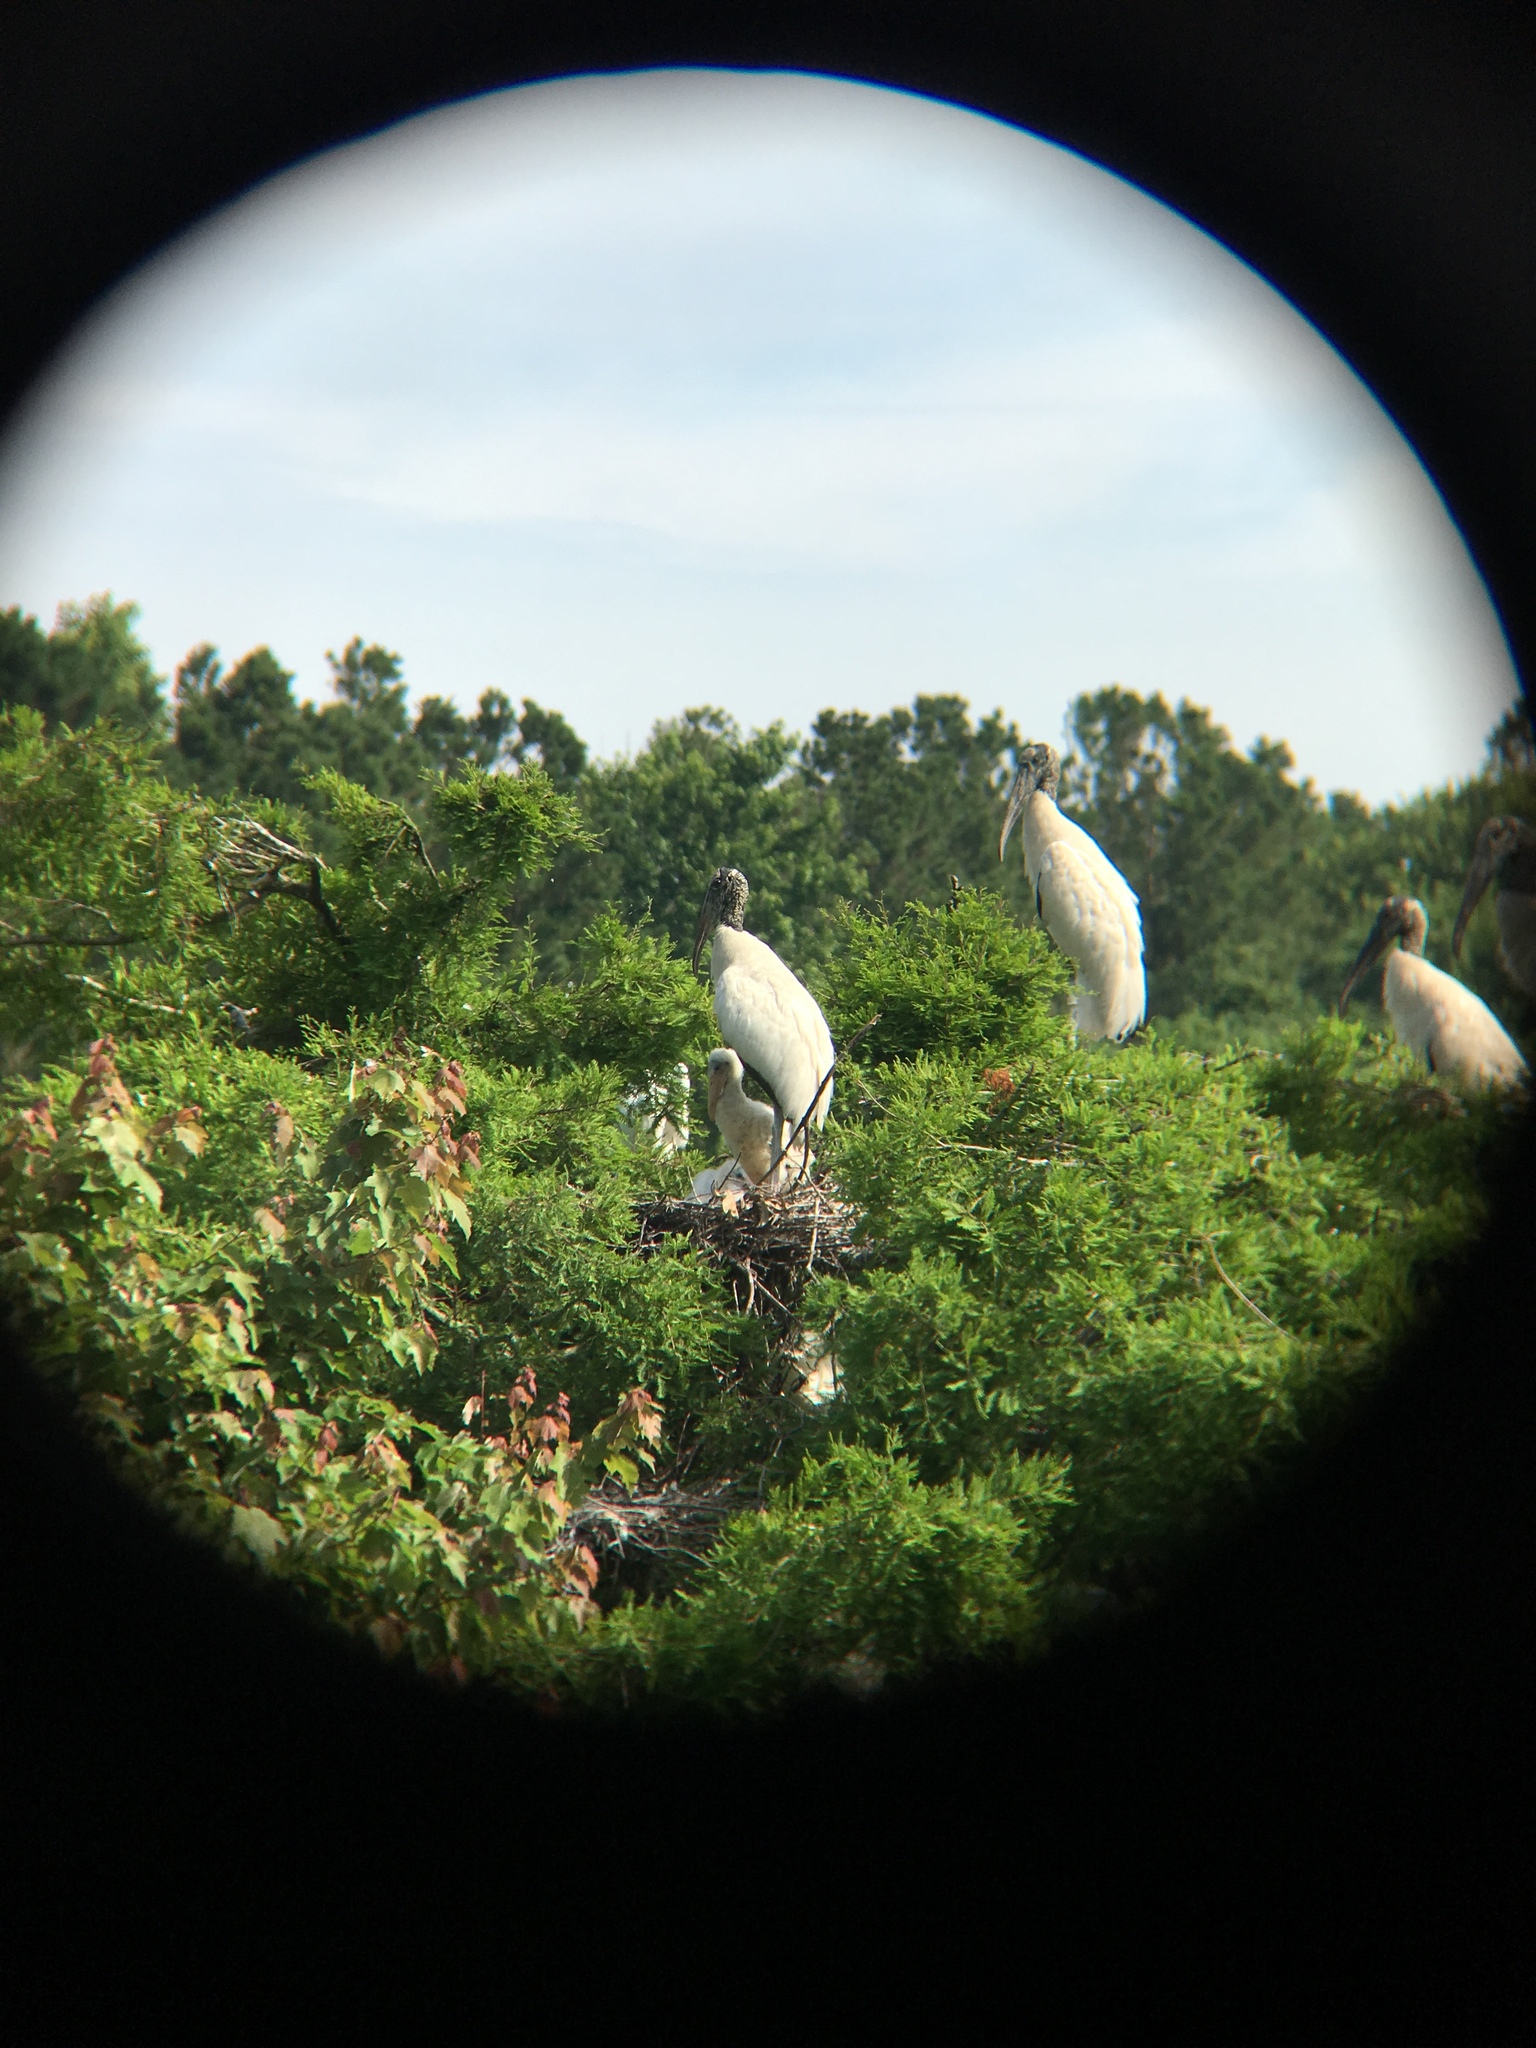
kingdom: Animalia
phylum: Chordata
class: Aves
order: Ciconiiformes
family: Ciconiidae
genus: Mycteria
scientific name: Mycteria americana
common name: Wood stork
